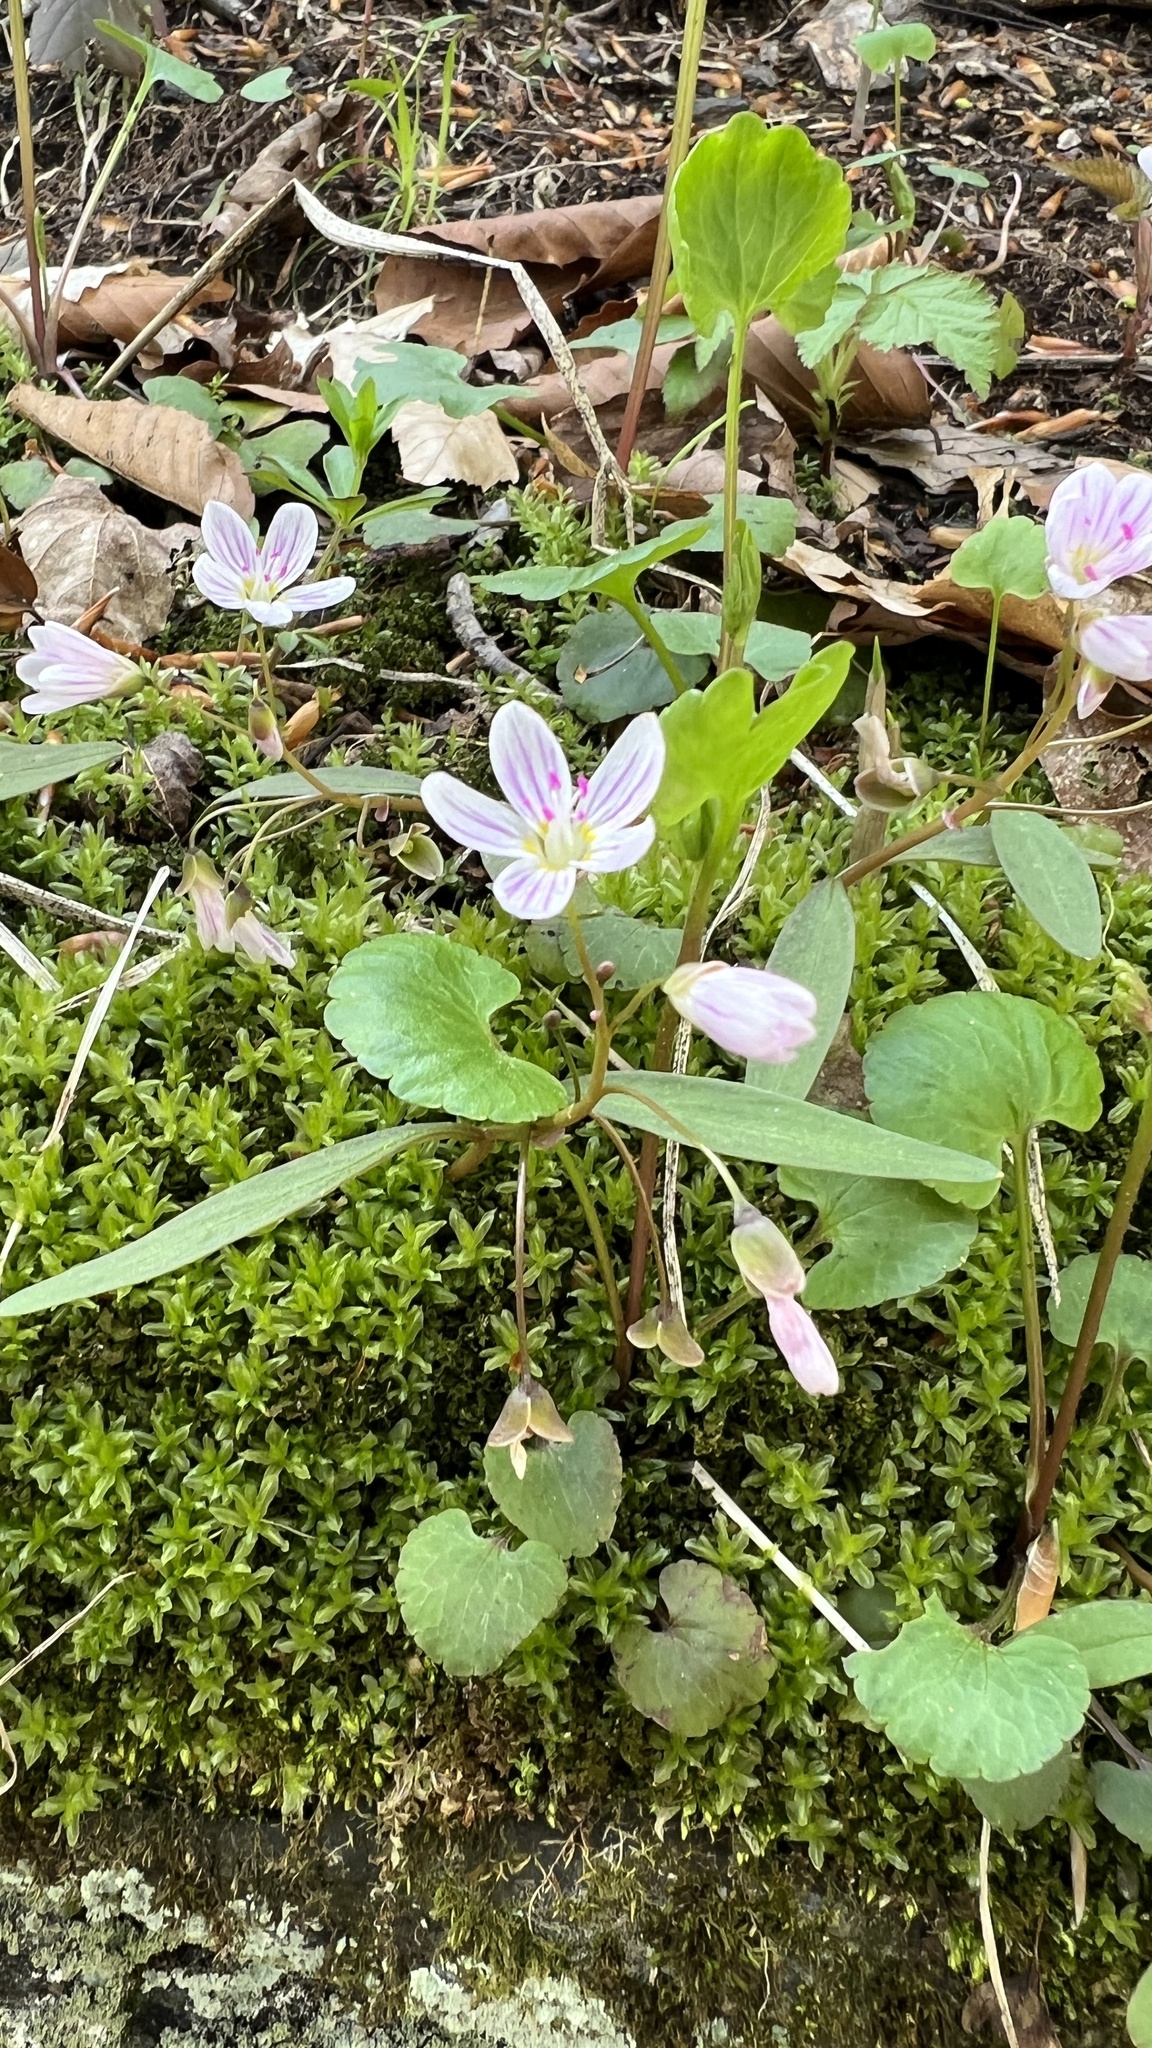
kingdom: Plantae
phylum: Tracheophyta
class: Magnoliopsida
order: Caryophyllales
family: Montiaceae
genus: Claytonia
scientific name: Claytonia caroliniana
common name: Carolina spring beauty
